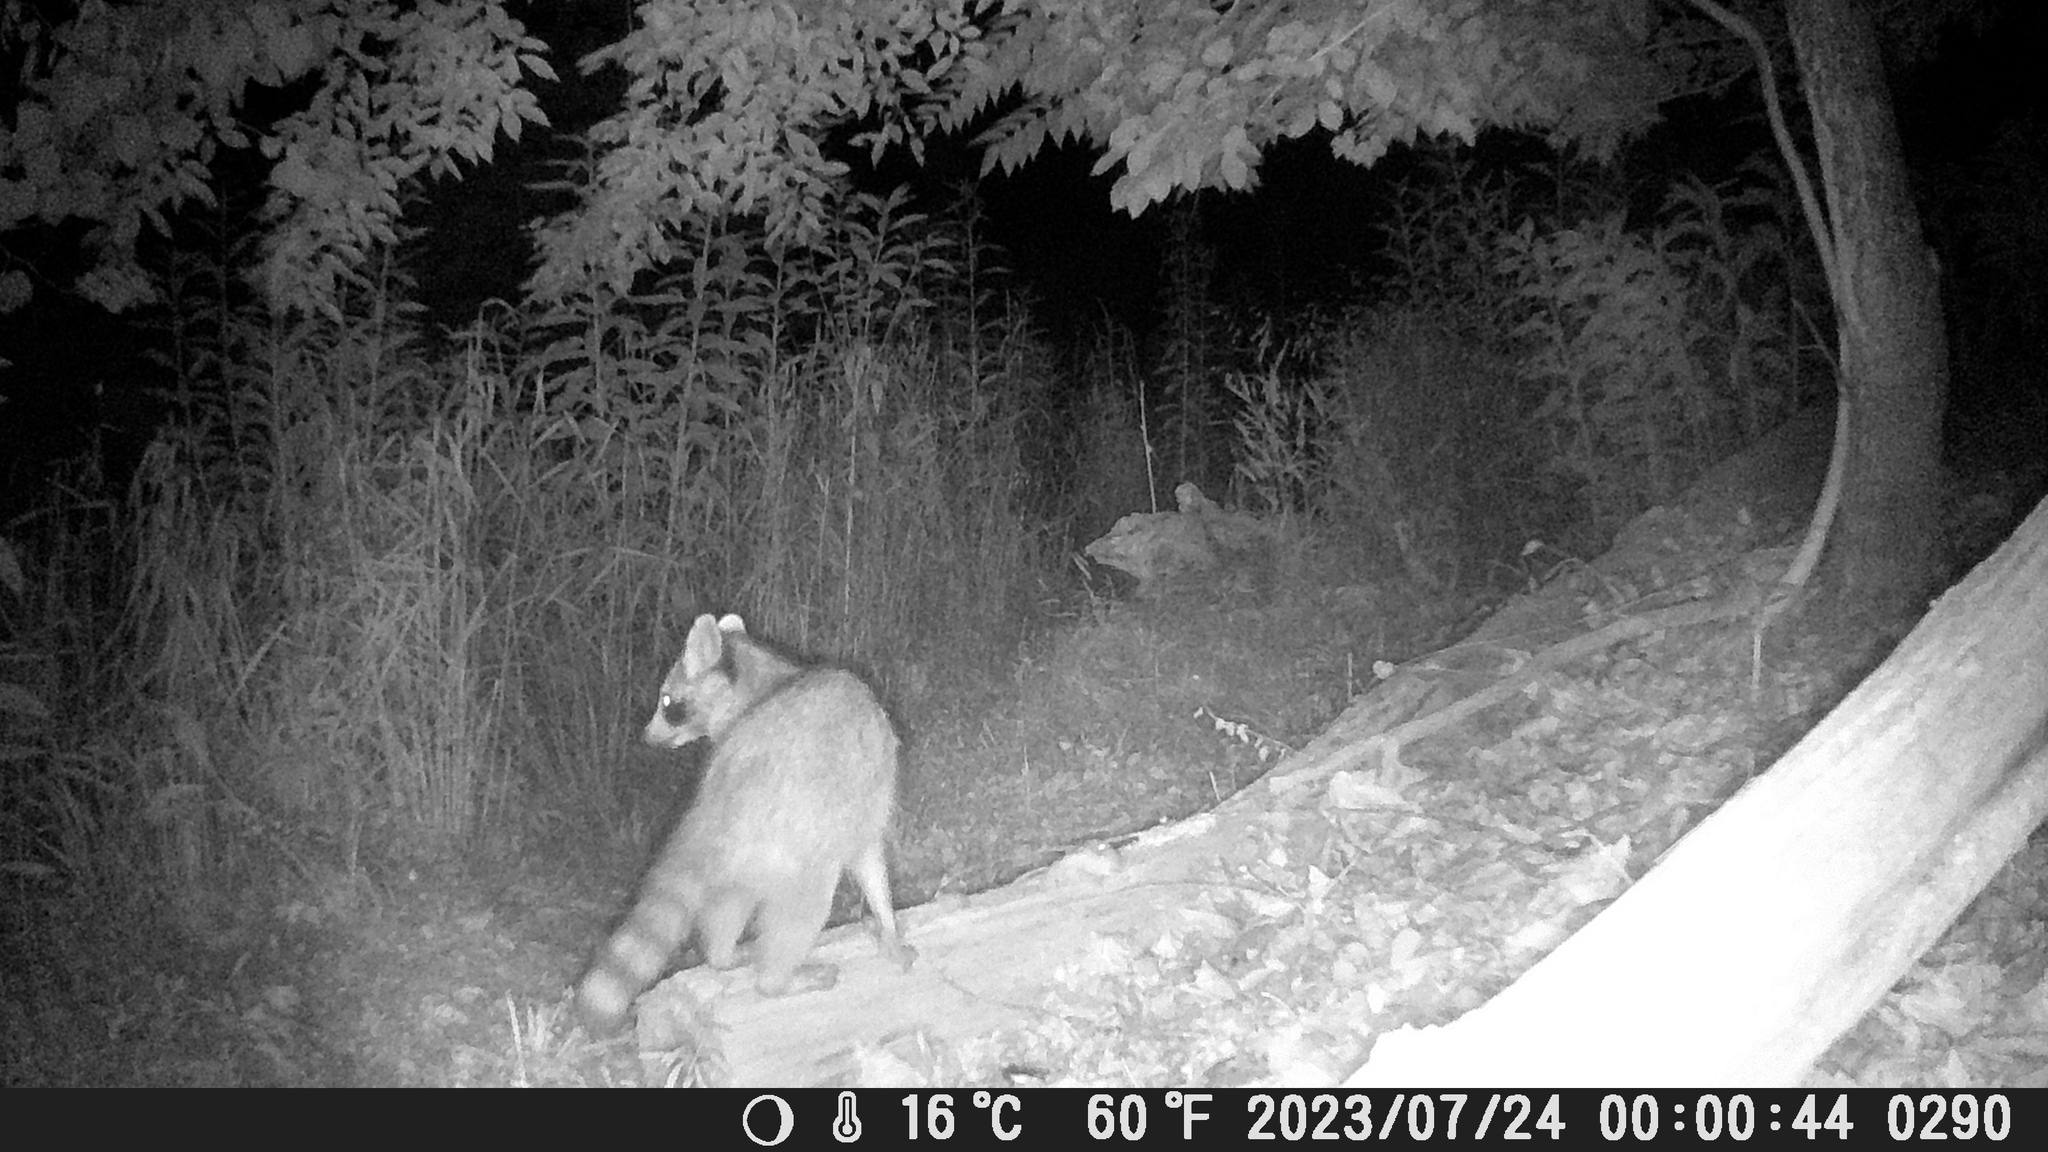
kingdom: Animalia
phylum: Chordata
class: Mammalia
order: Carnivora
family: Procyonidae
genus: Procyon
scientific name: Procyon lotor
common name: Raccoon
